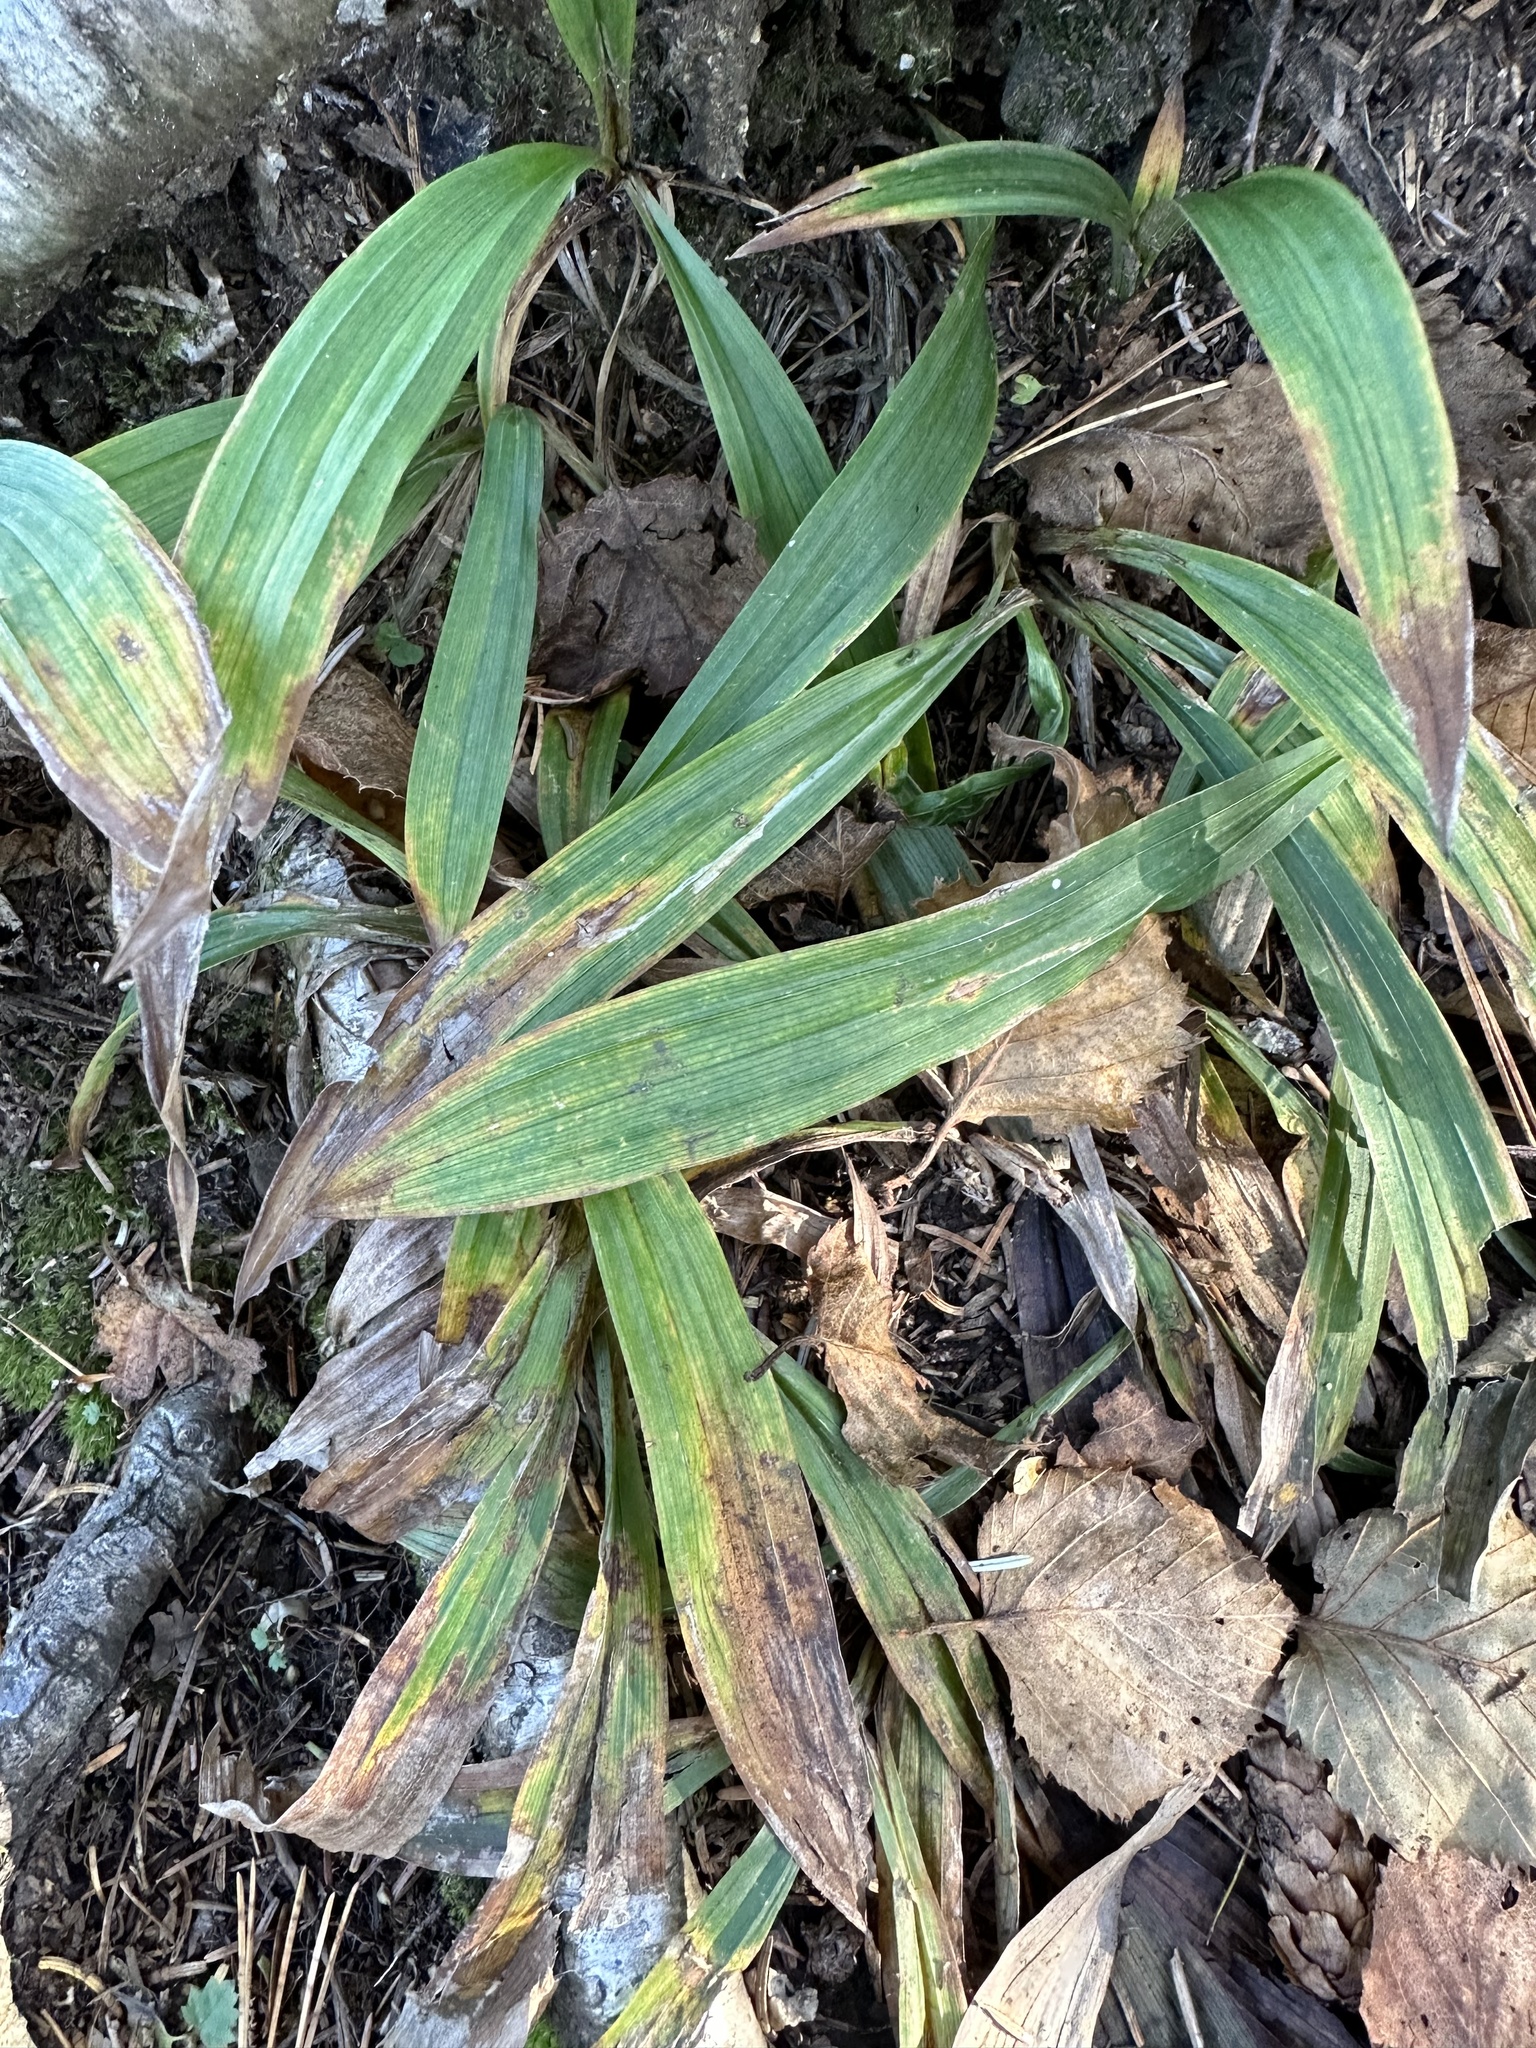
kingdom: Plantae
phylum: Tracheophyta
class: Liliopsida
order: Poales
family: Cyperaceae
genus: Carex
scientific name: Carex siderosticta
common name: Broadleaf sedge
